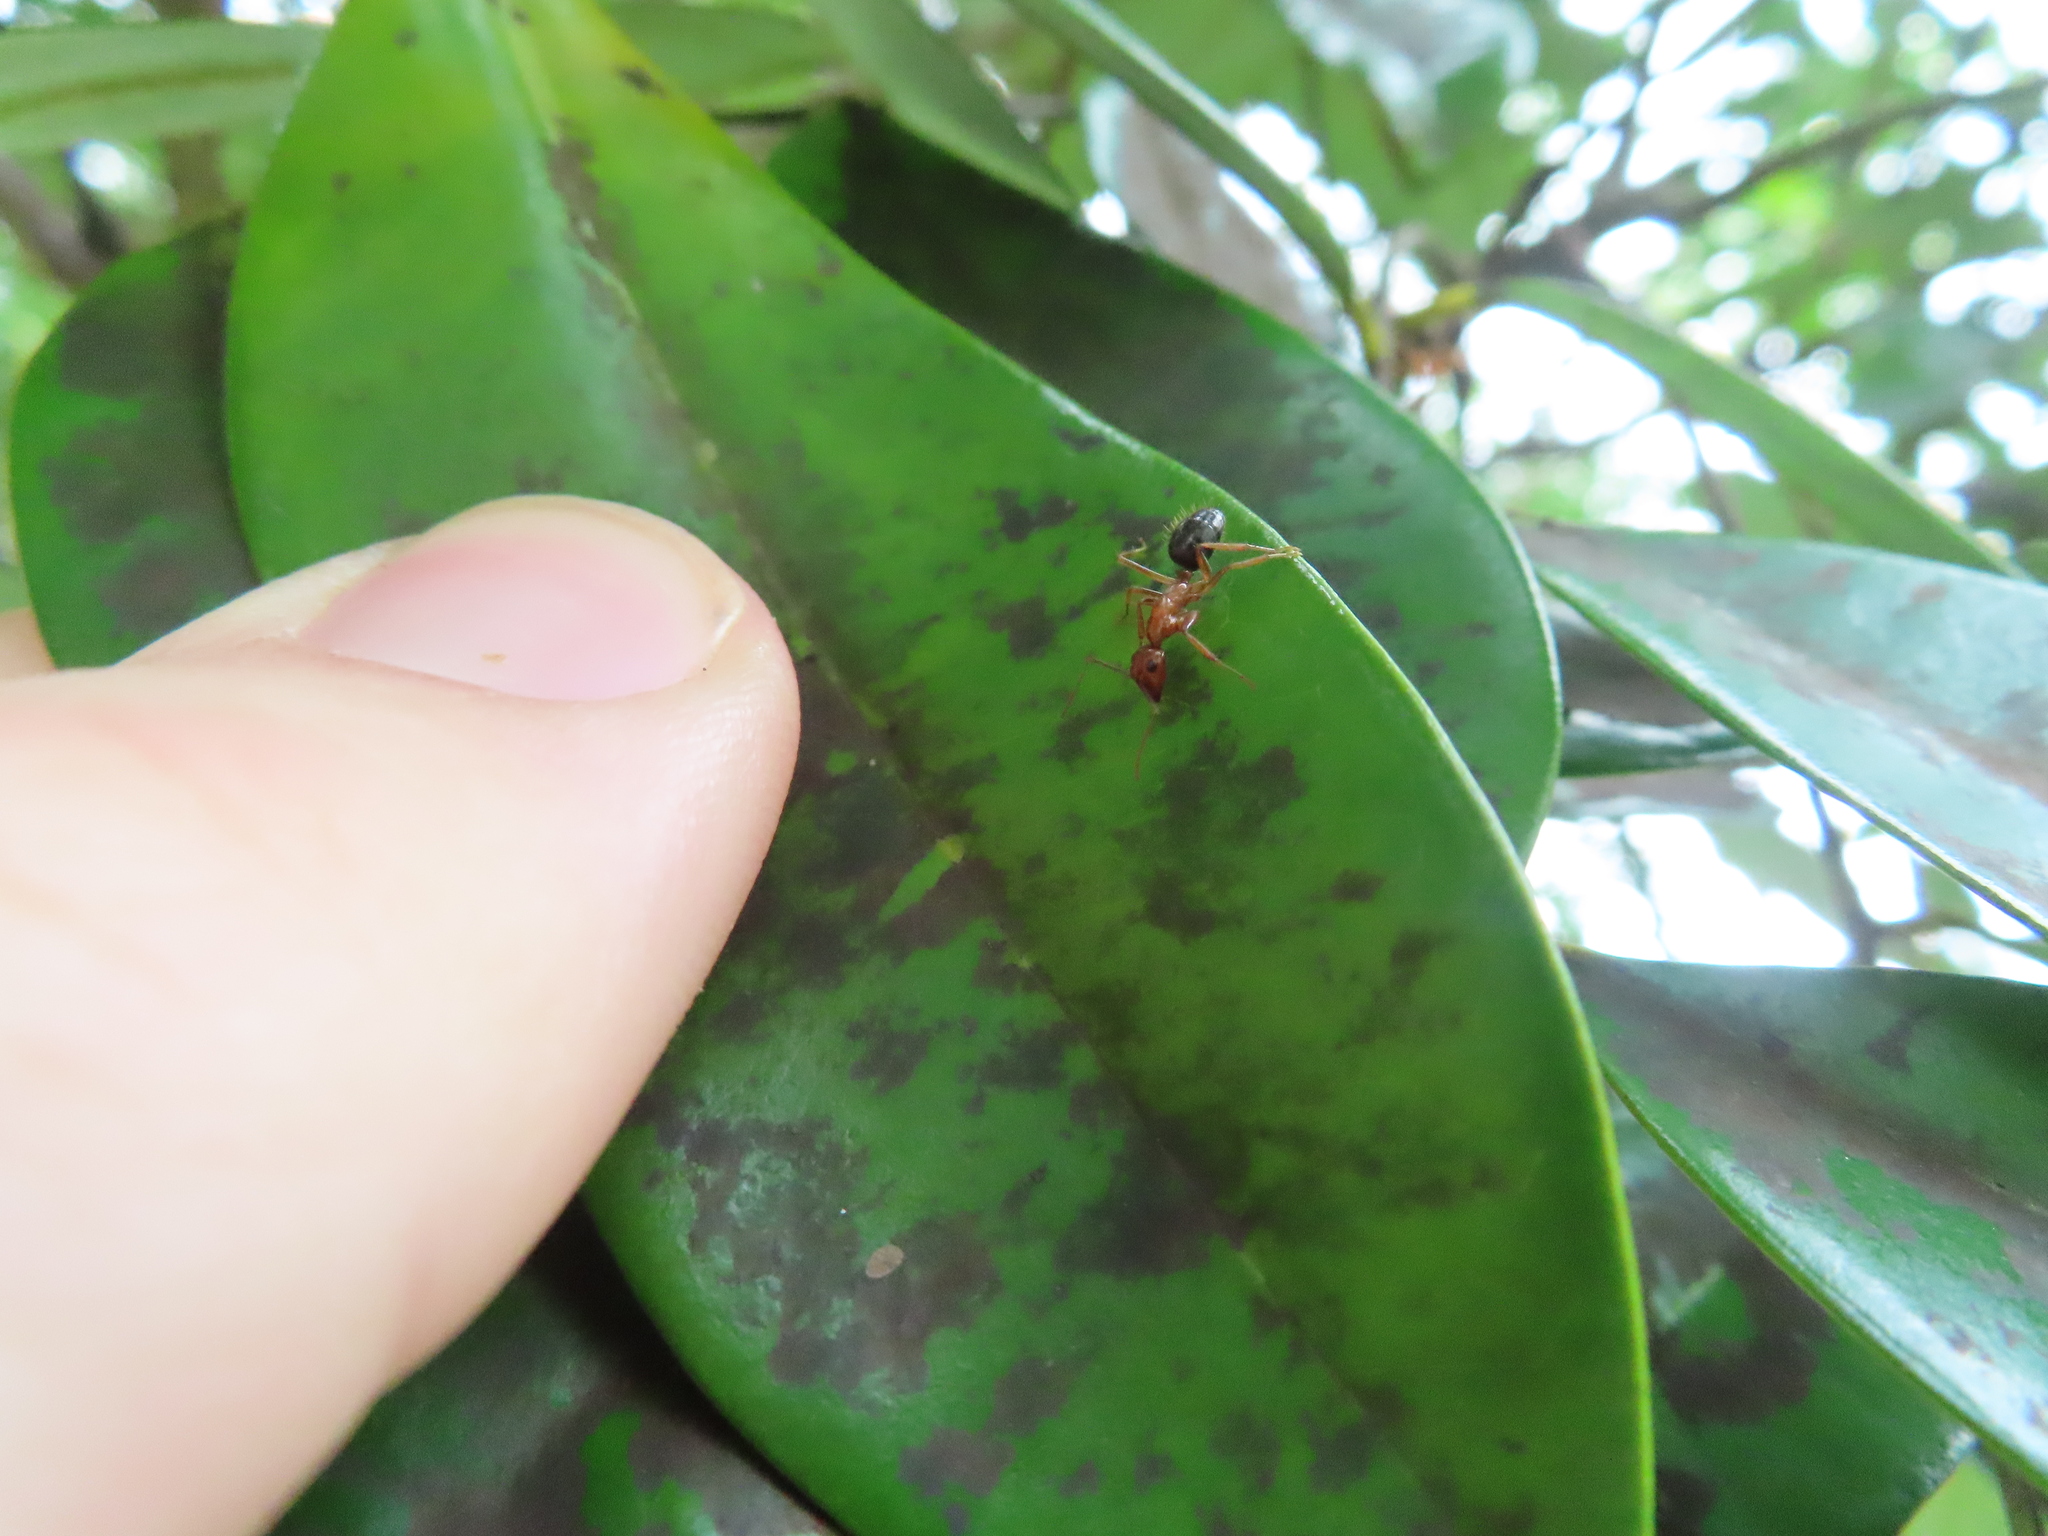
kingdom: Animalia
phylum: Arthropoda
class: Insecta
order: Hymenoptera
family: Formicidae
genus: Camponotus
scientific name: Camponotus floridanus
